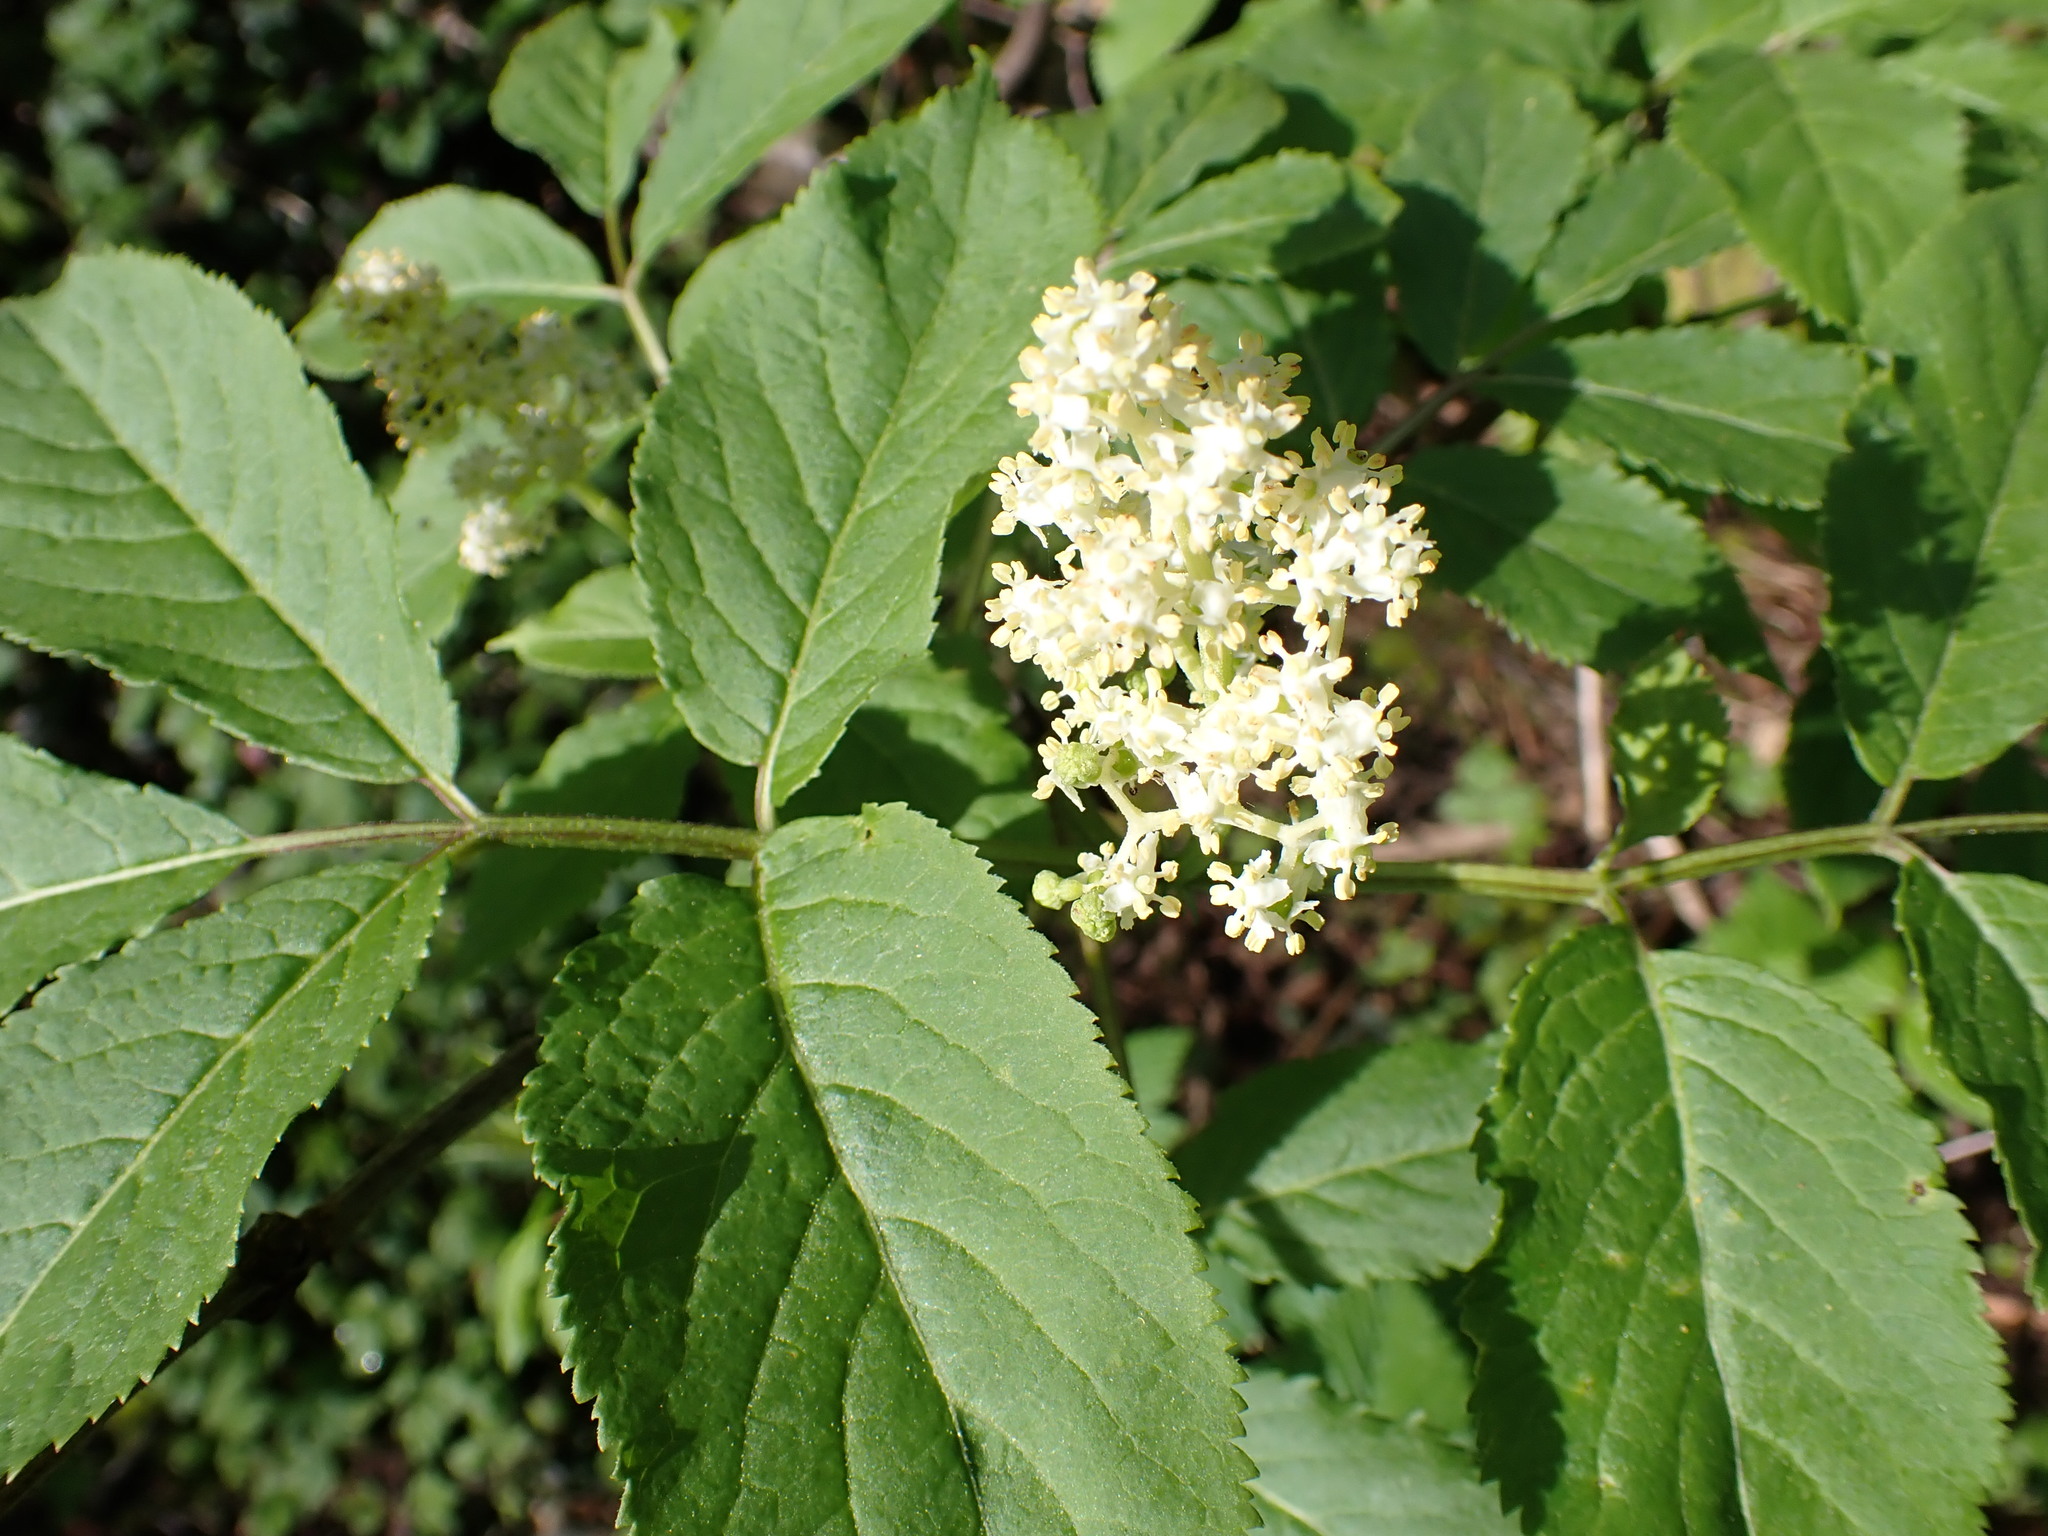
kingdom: Plantae
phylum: Tracheophyta
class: Magnoliopsida
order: Dipsacales
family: Viburnaceae
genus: Sambucus
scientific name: Sambucus racemosa
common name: Red-berried elder
